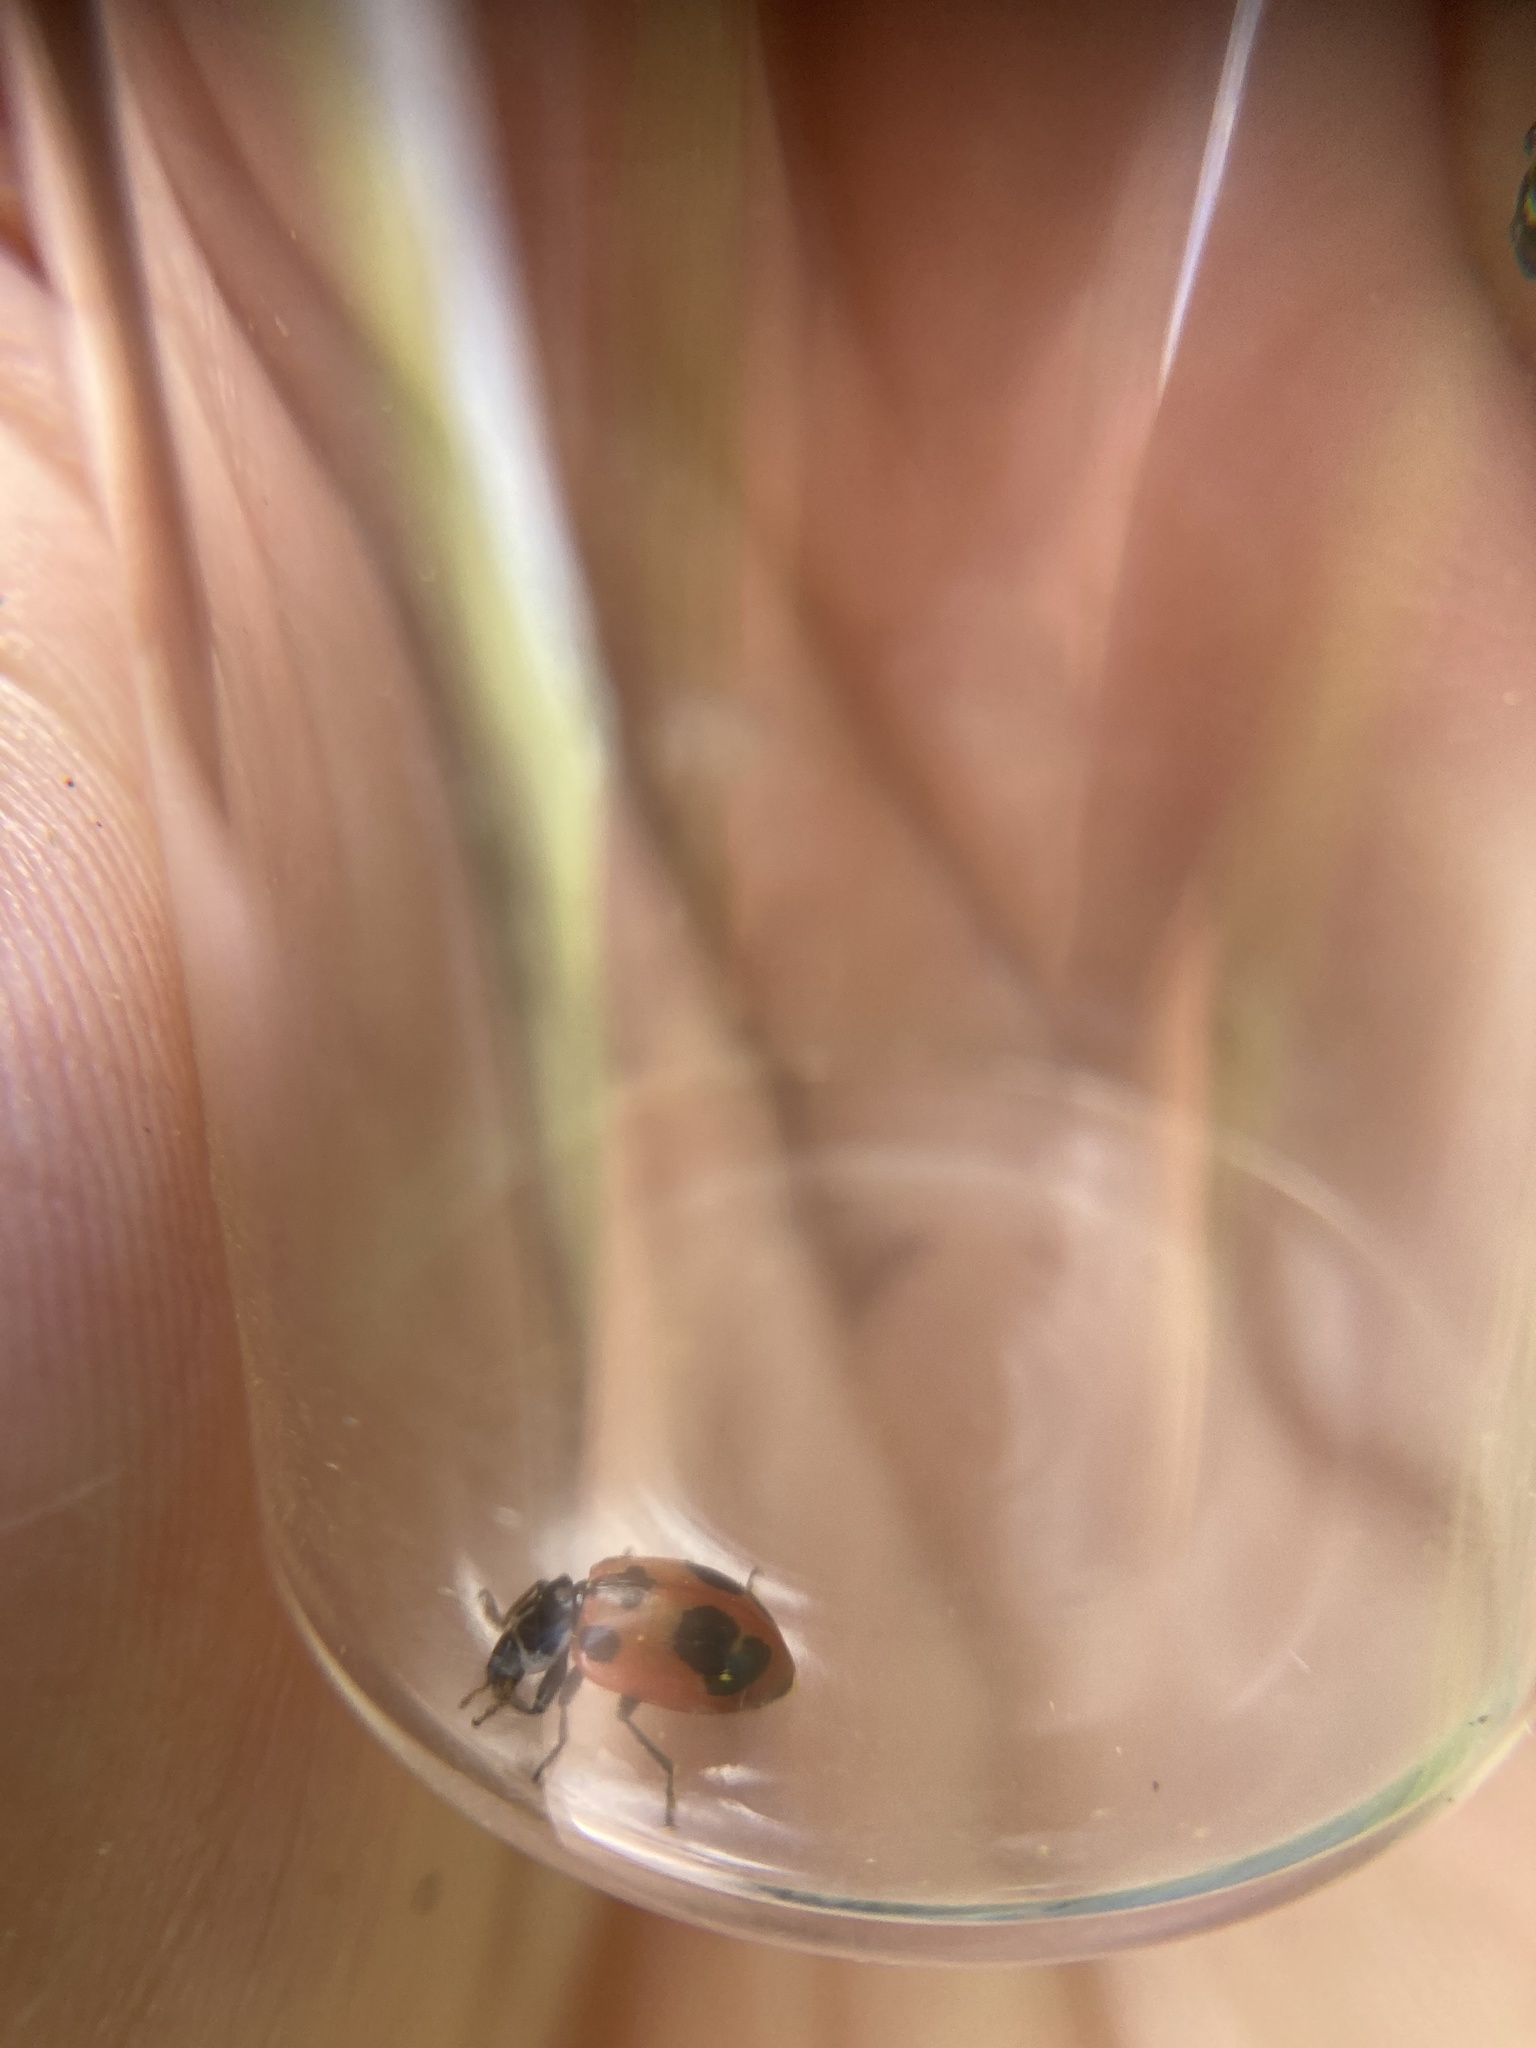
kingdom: Animalia
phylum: Arthropoda
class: Insecta
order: Coleoptera
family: Coccinellidae
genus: Hippodamia
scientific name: Hippodamia parenthesis
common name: Parenthesis lady beetle
